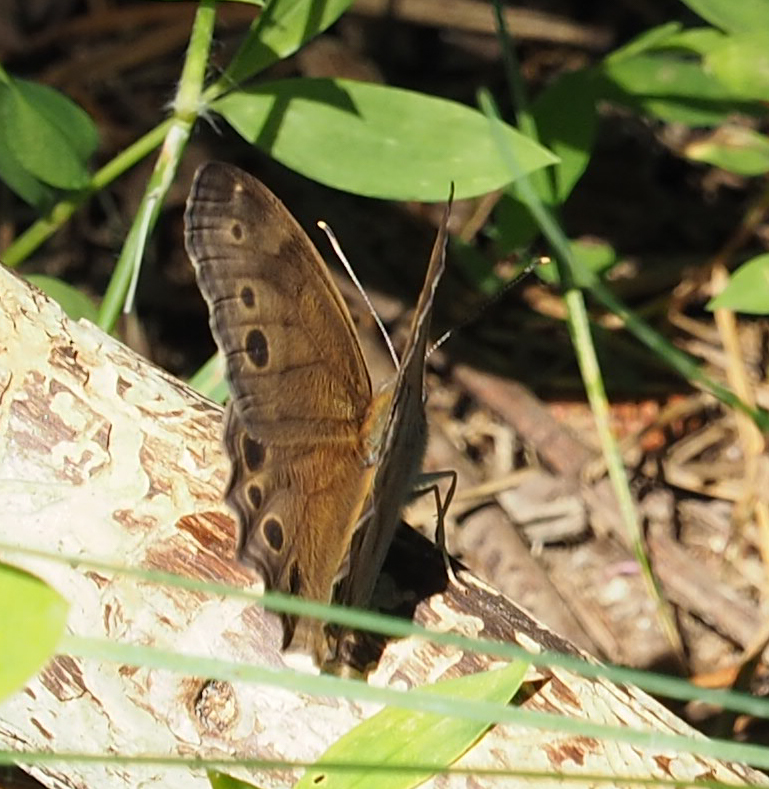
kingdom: Animalia
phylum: Arthropoda
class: Insecta
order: Lepidoptera
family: Nymphalidae
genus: Lethe
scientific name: Lethe anthedon
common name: Northern pearly-eye
